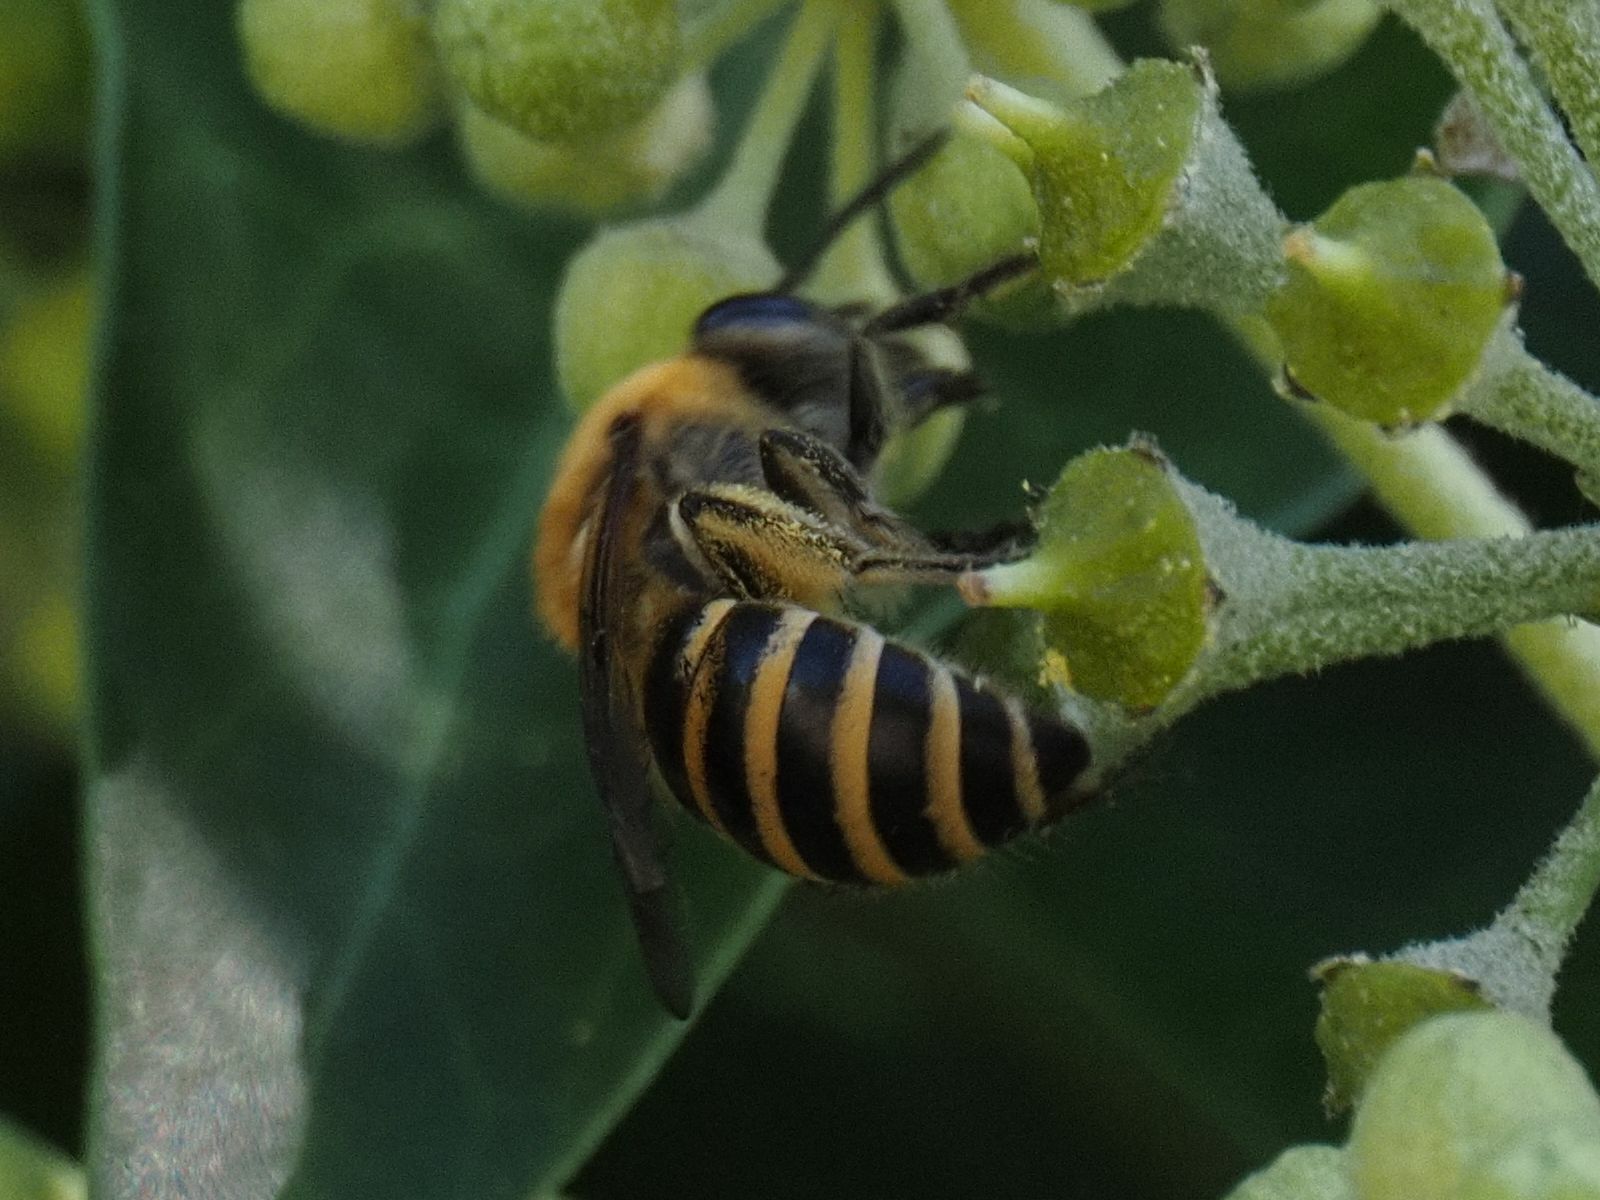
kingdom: Animalia
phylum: Arthropoda
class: Insecta
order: Hymenoptera
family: Colletidae
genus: Colletes
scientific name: Colletes hederae
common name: Ivy bee
